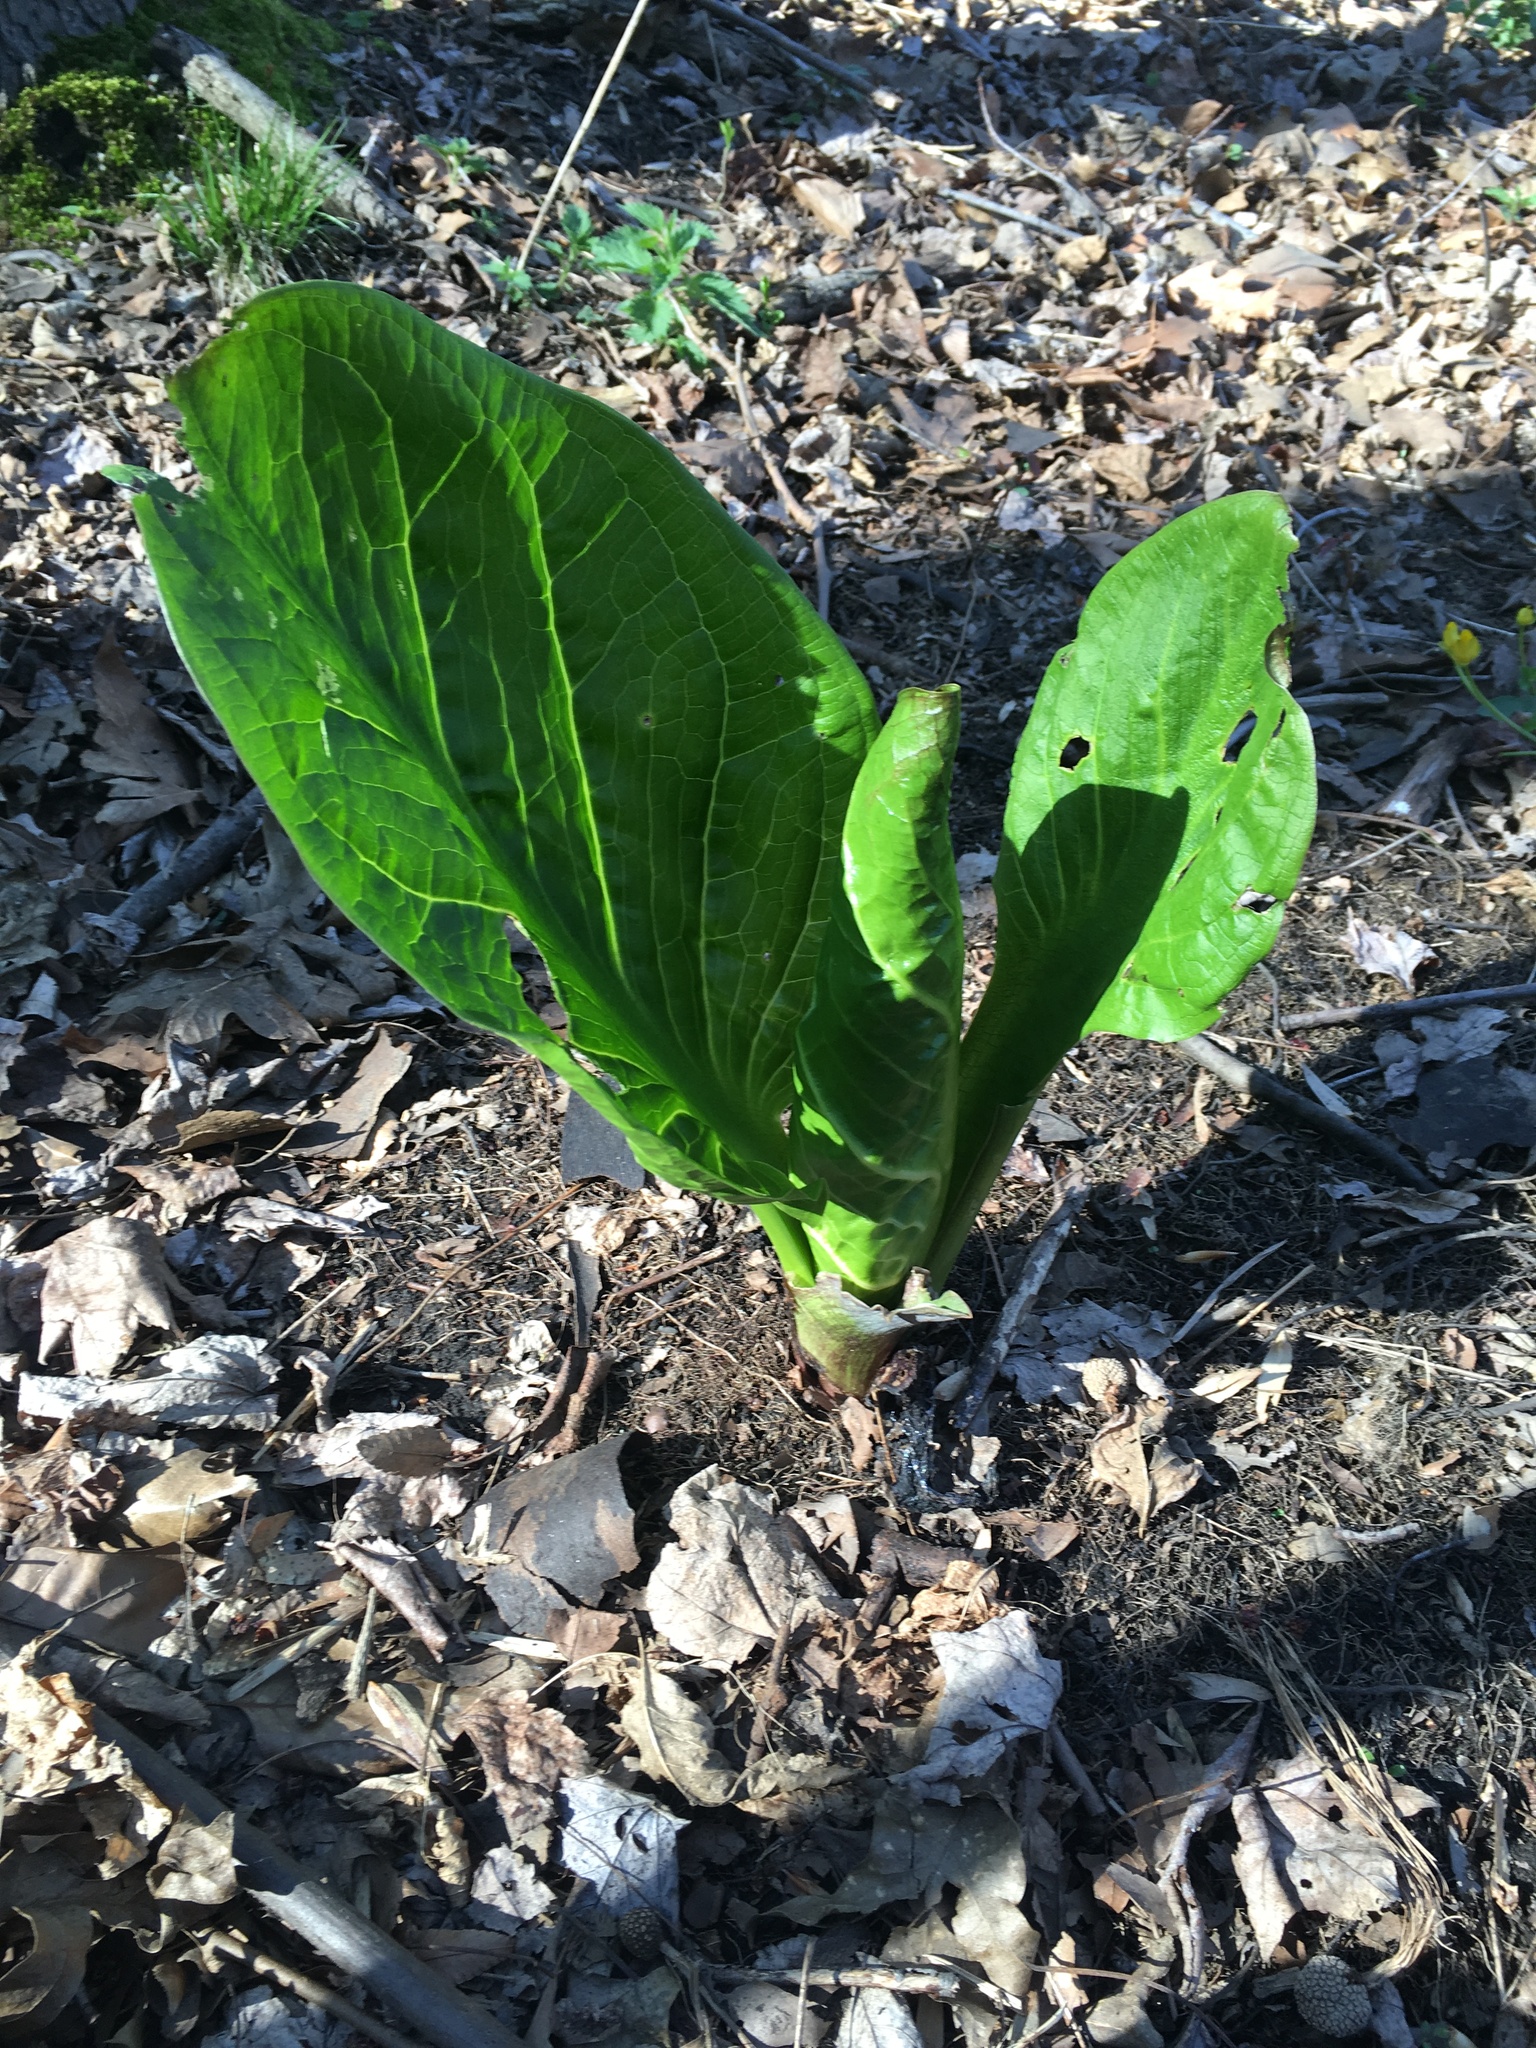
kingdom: Plantae
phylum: Tracheophyta
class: Liliopsida
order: Alismatales
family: Araceae
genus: Symplocarpus
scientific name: Symplocarpus foetidus
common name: Eastern skunk cabbage
